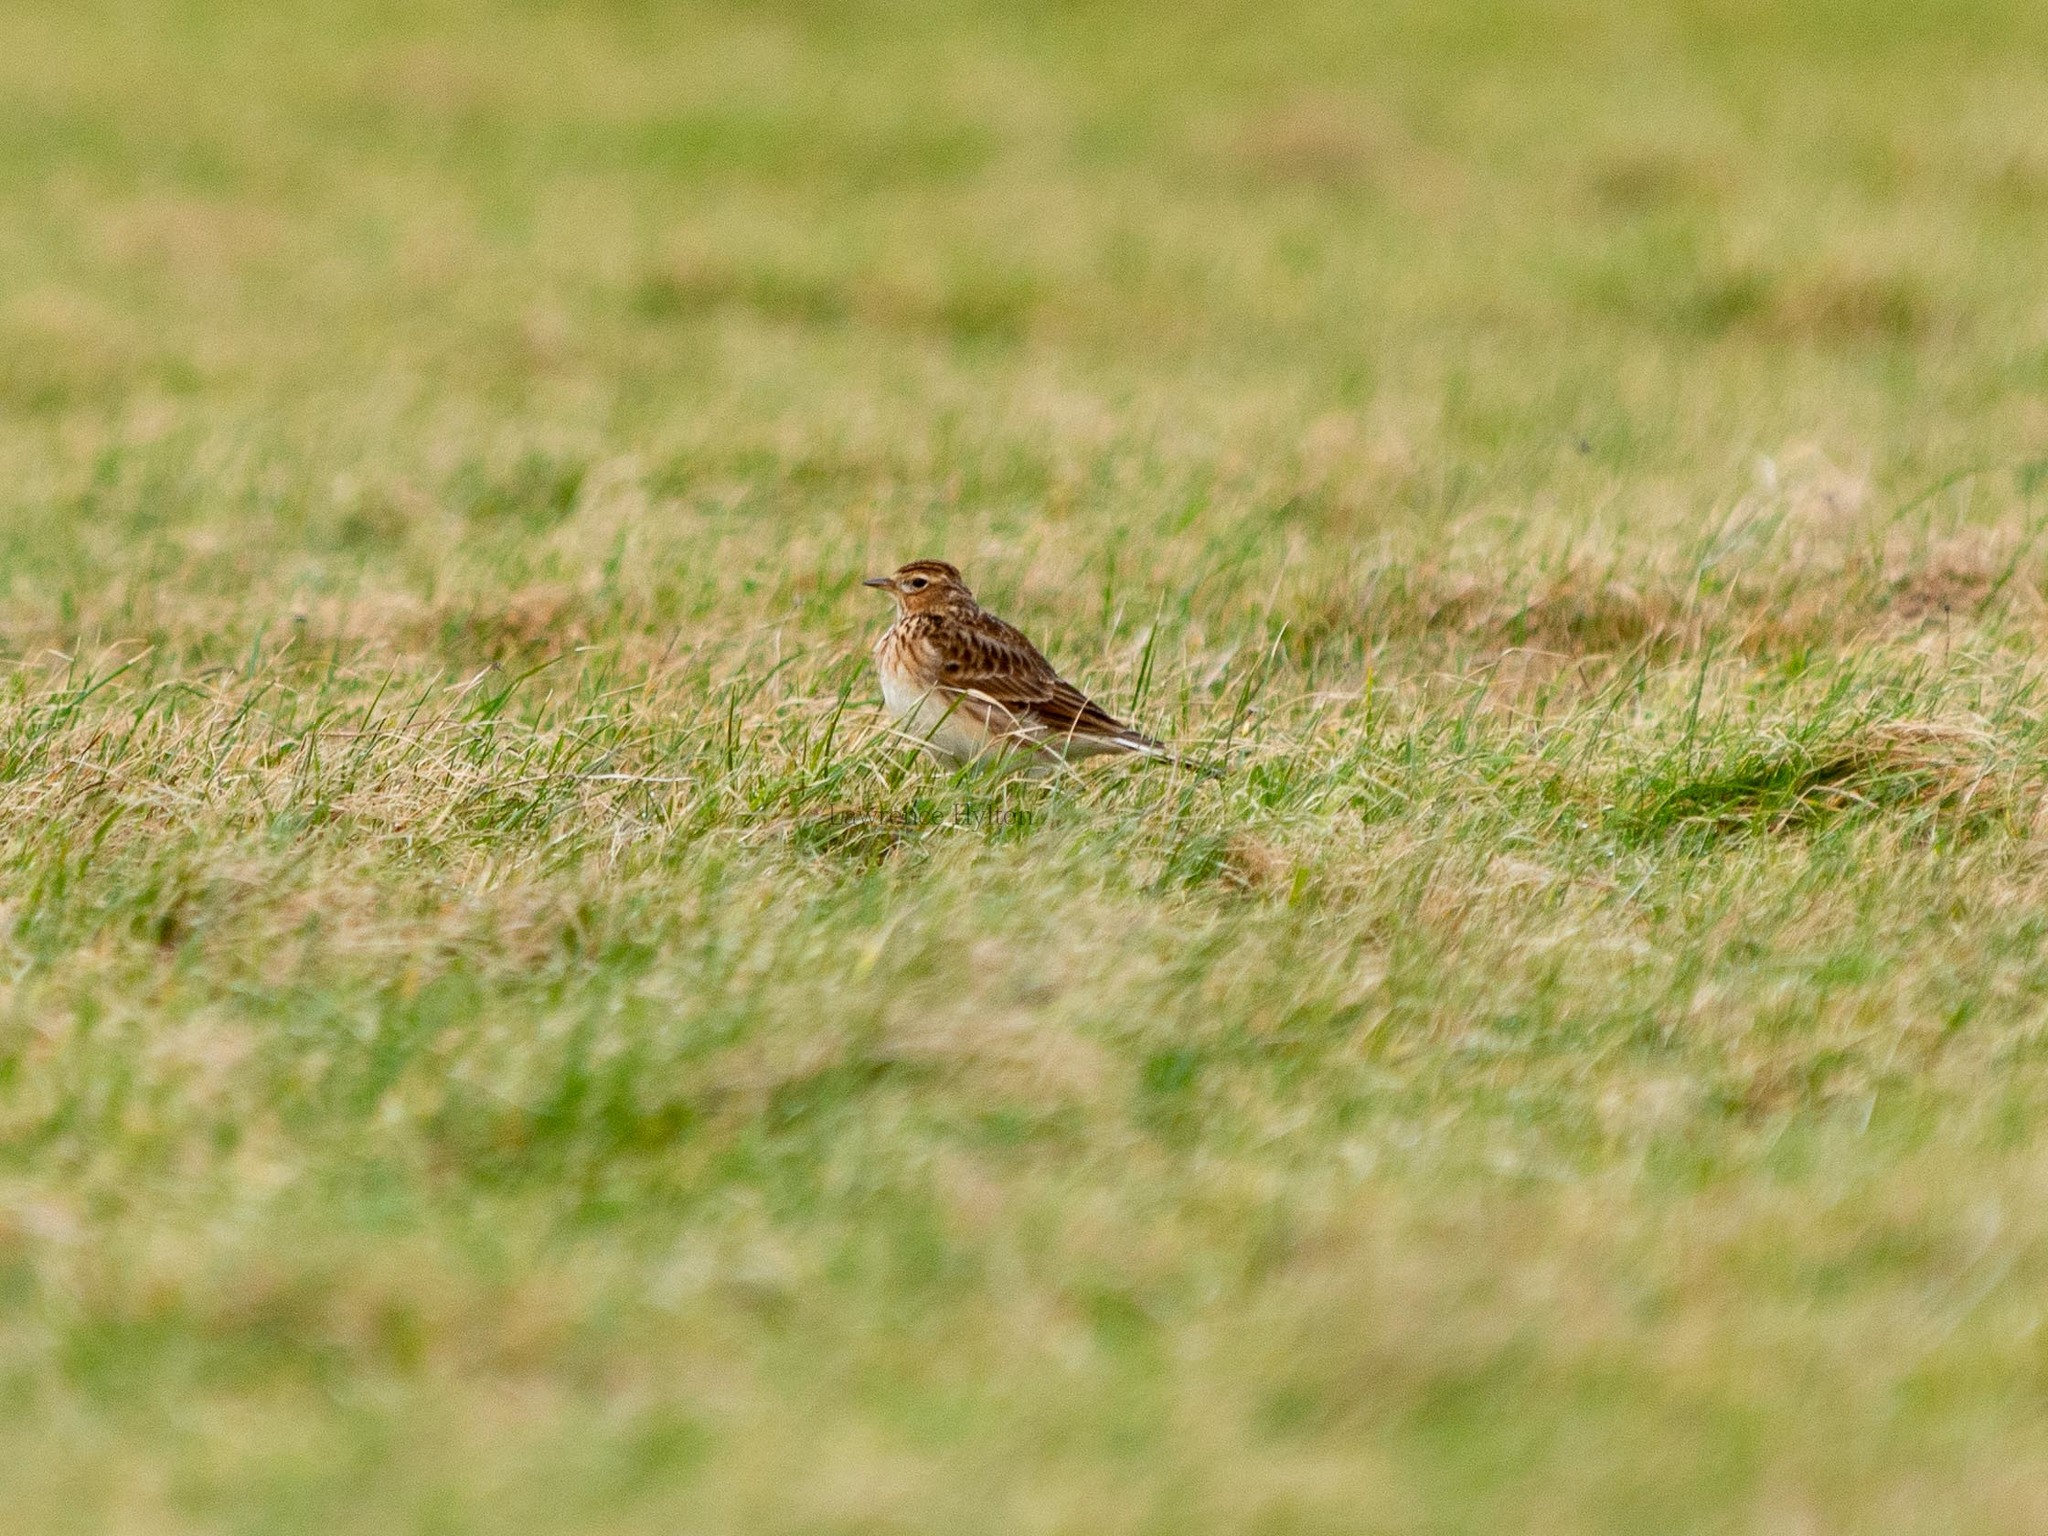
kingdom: Animalia
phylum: Chordata
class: Aves
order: Passeriformes
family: Alaudidae
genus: Alauda
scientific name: Alauda arvensis
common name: Eurasian skylark
